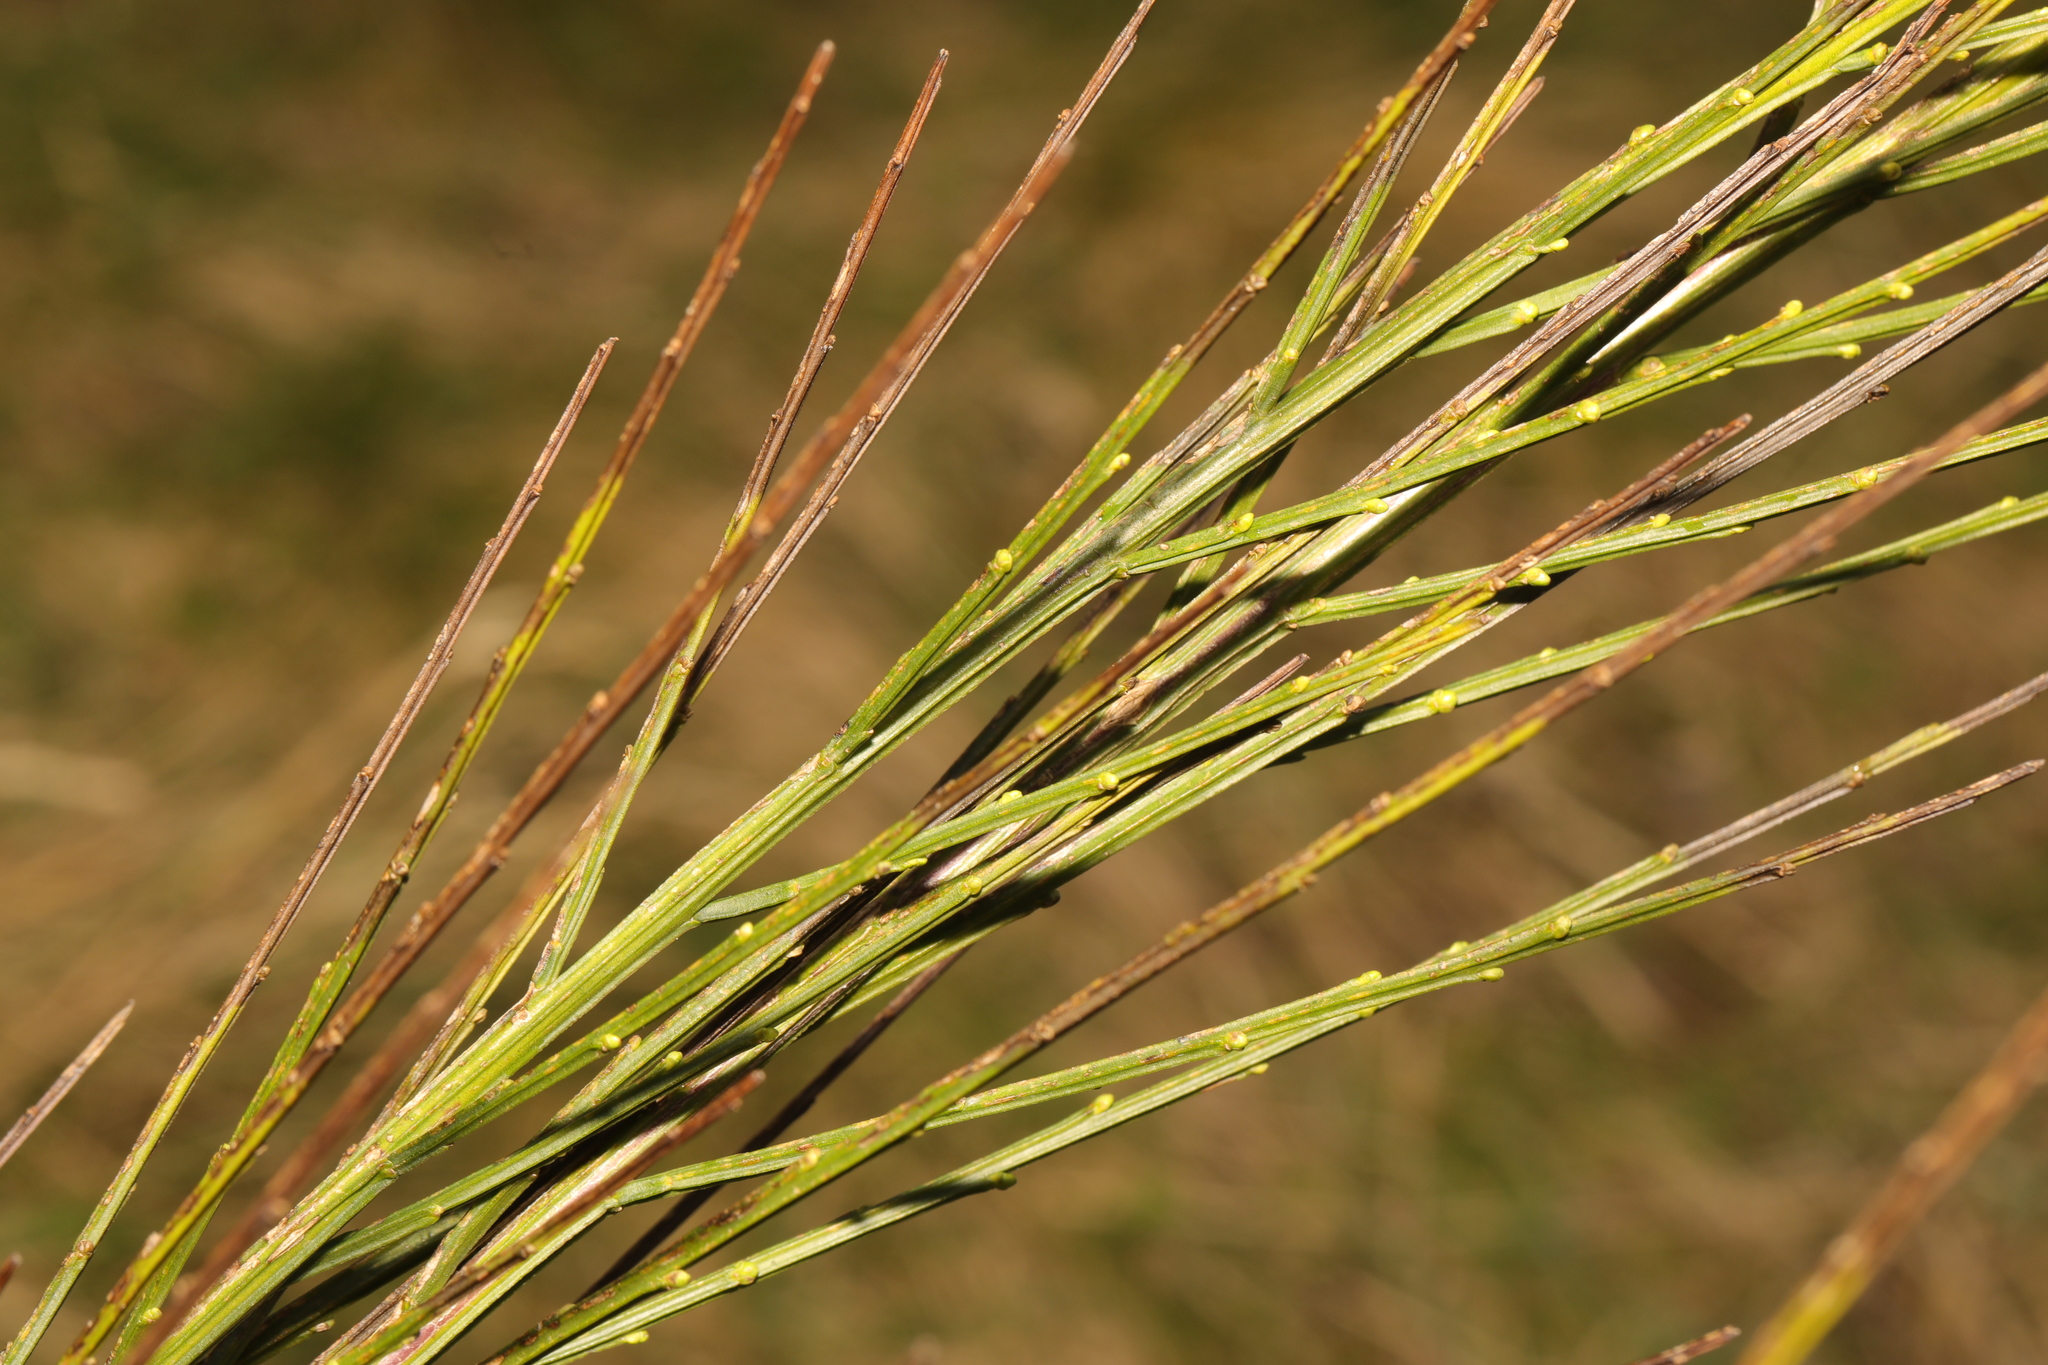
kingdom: Plantae
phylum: Tracheophyta
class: Magnoliopsida
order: Fabales
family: Fabaceae
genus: Cytisus
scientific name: Cytisus scoparius
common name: Scotch broom
